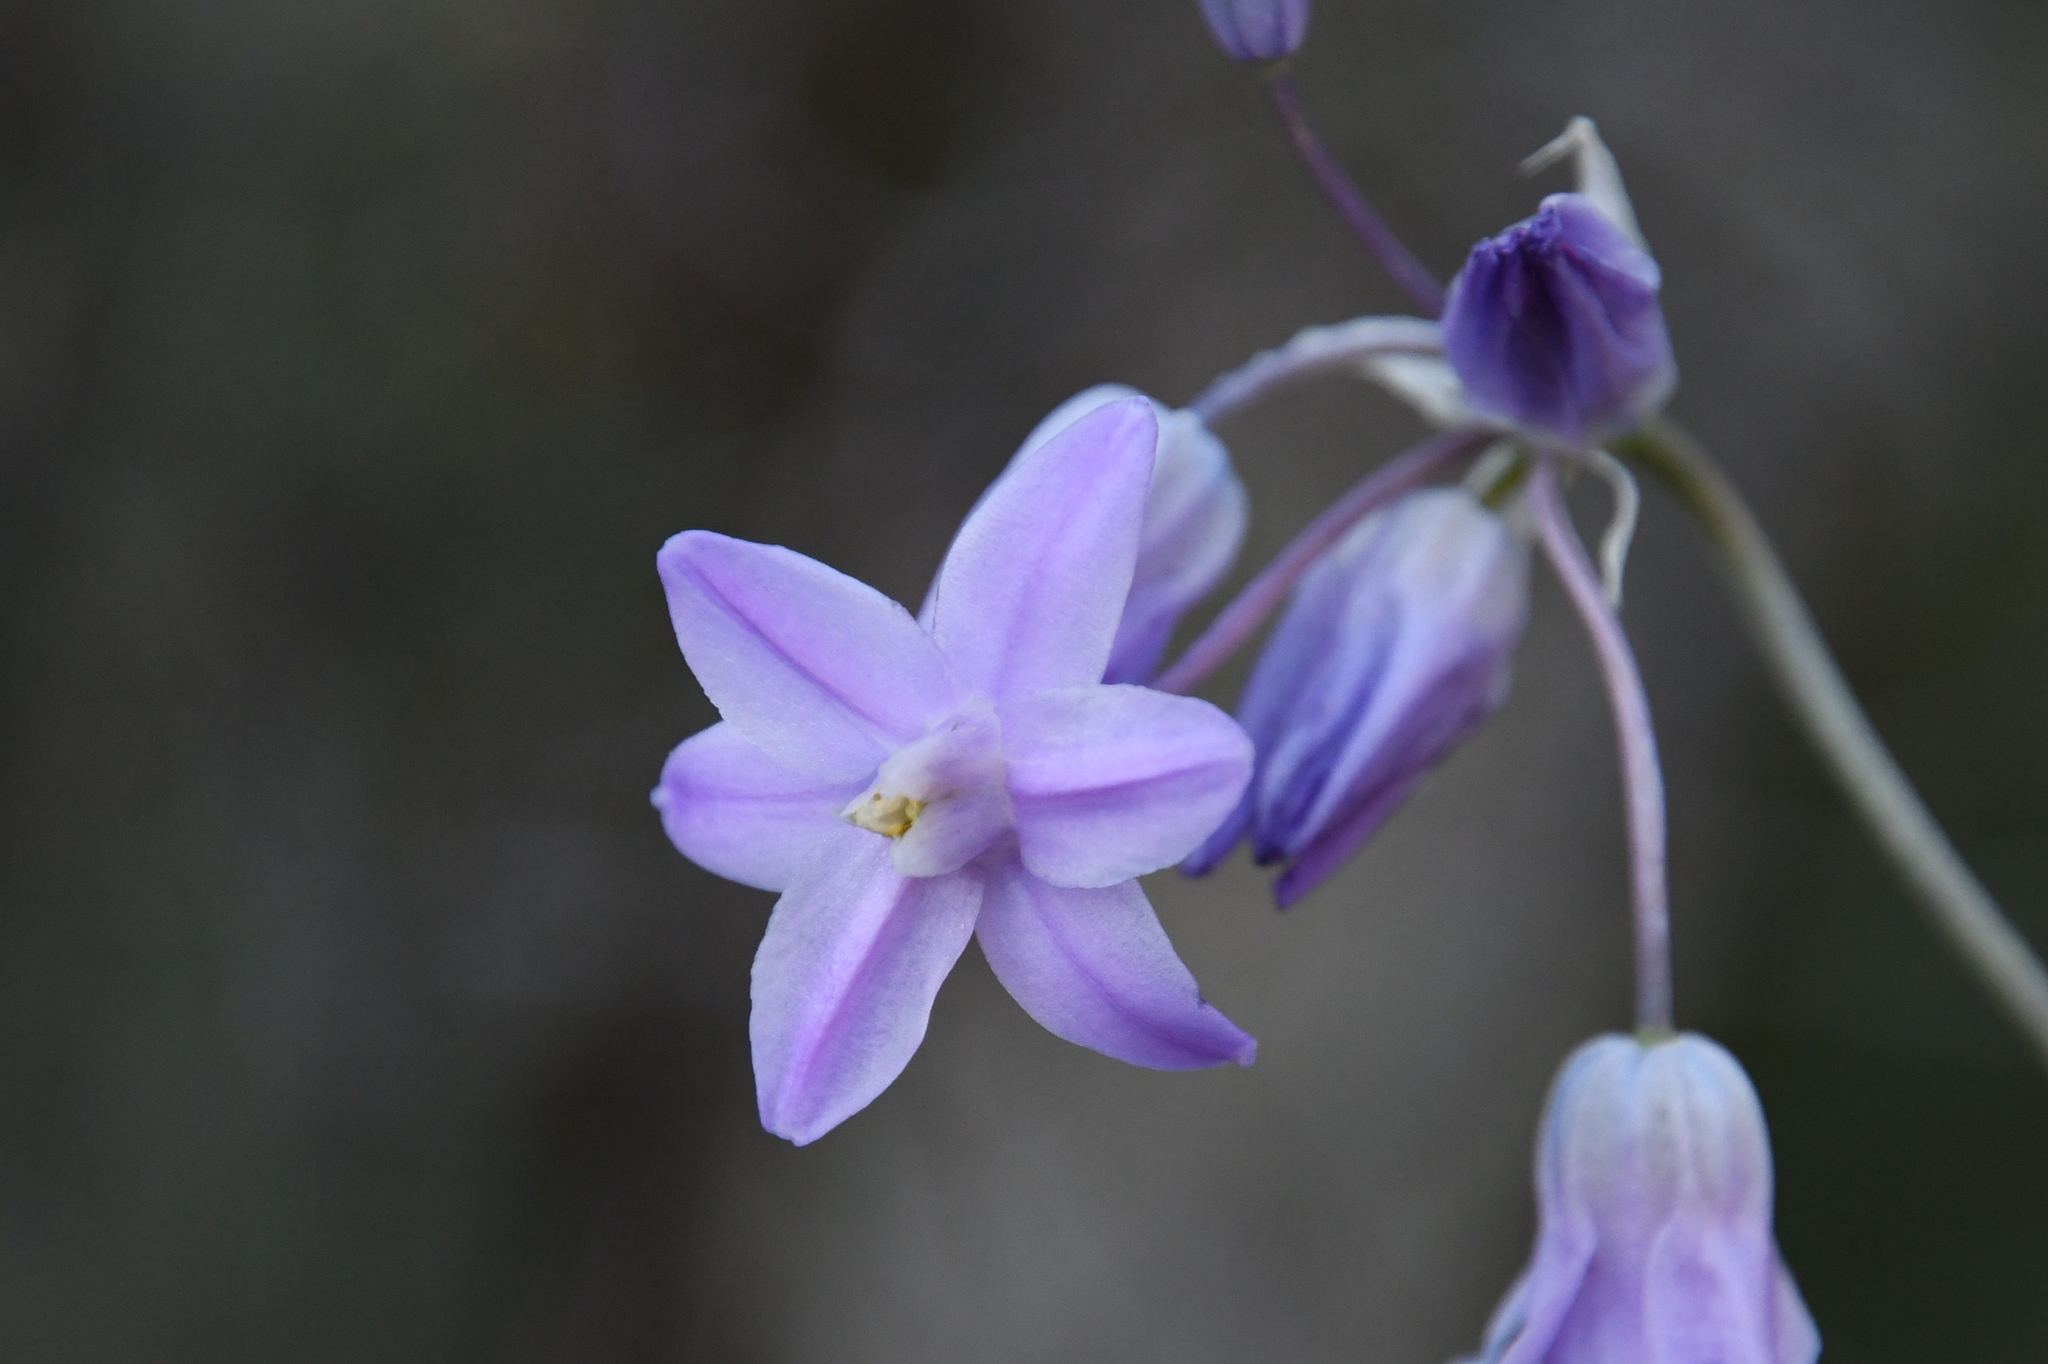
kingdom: Plantae
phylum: Tracheophyta
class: Liliopsida
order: Asparagales
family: Asparagaceae
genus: Dipterostemon
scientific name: Dipterostemon capitatus
